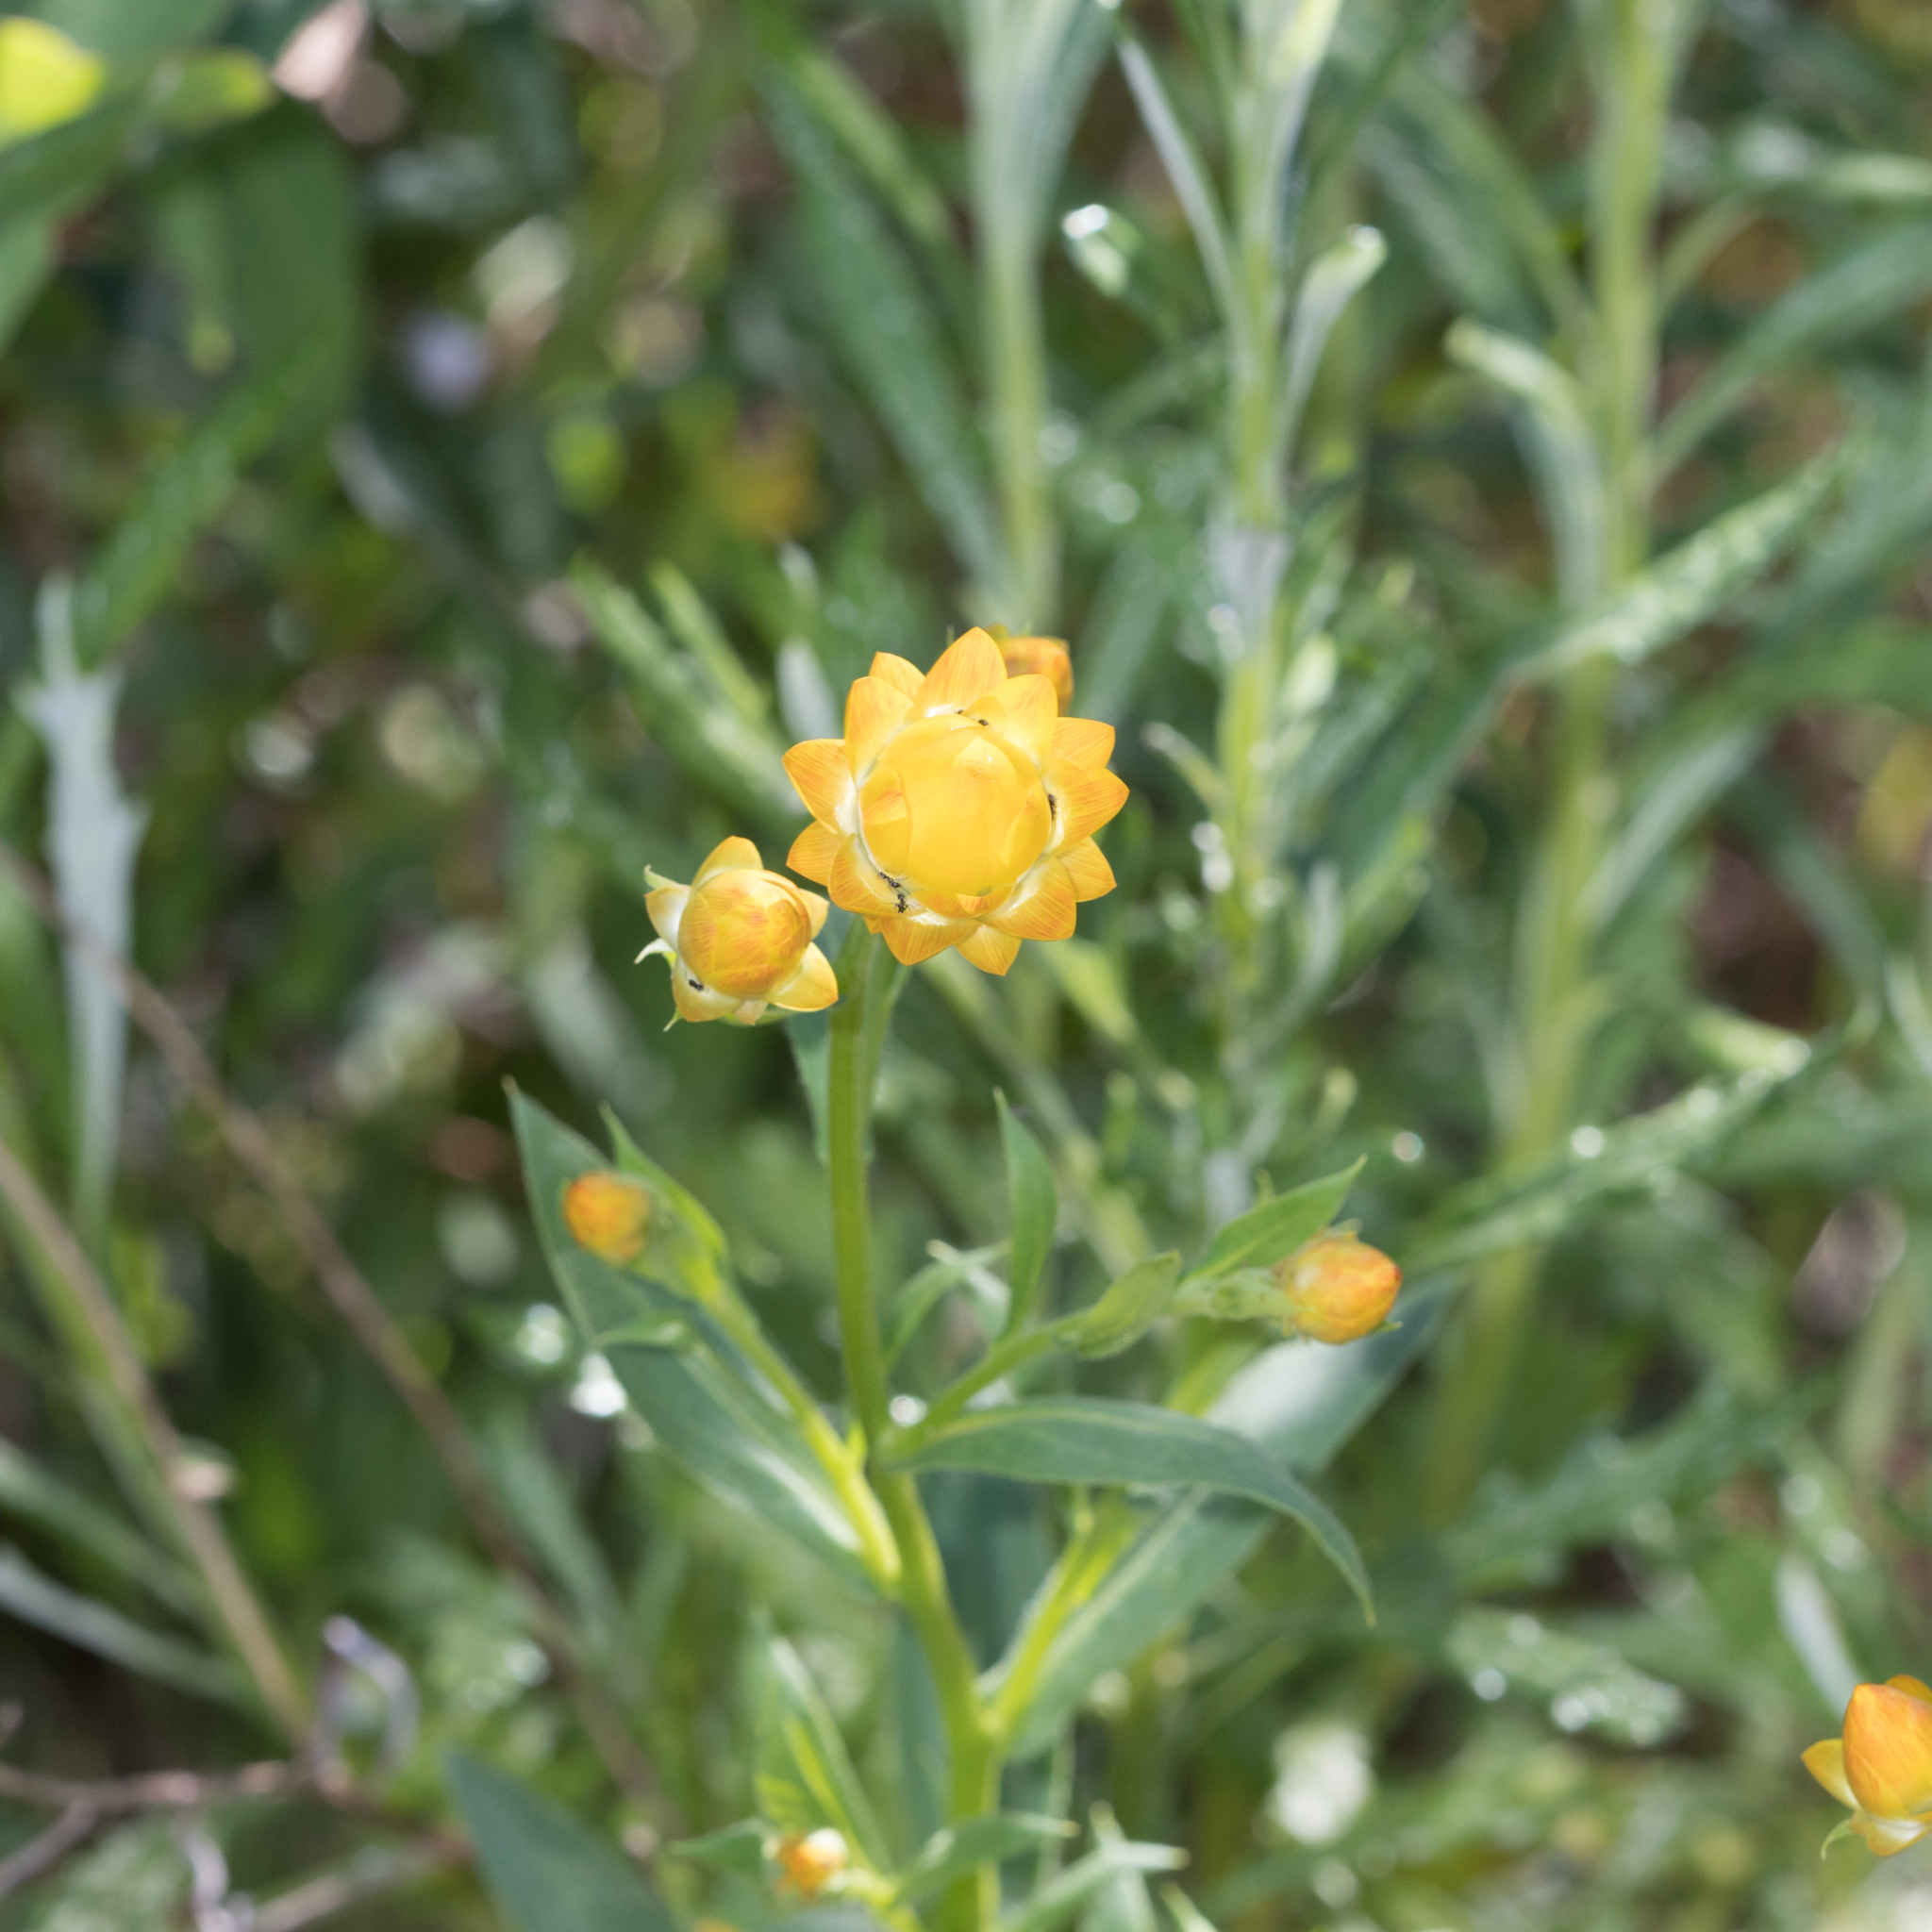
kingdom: Plantae
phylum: Tracheophyta
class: Magnoliopsida
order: Asterales
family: Asteraceae
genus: Xerochrysum
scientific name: Xerochrysum bracteatum
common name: Bracted strawflower
